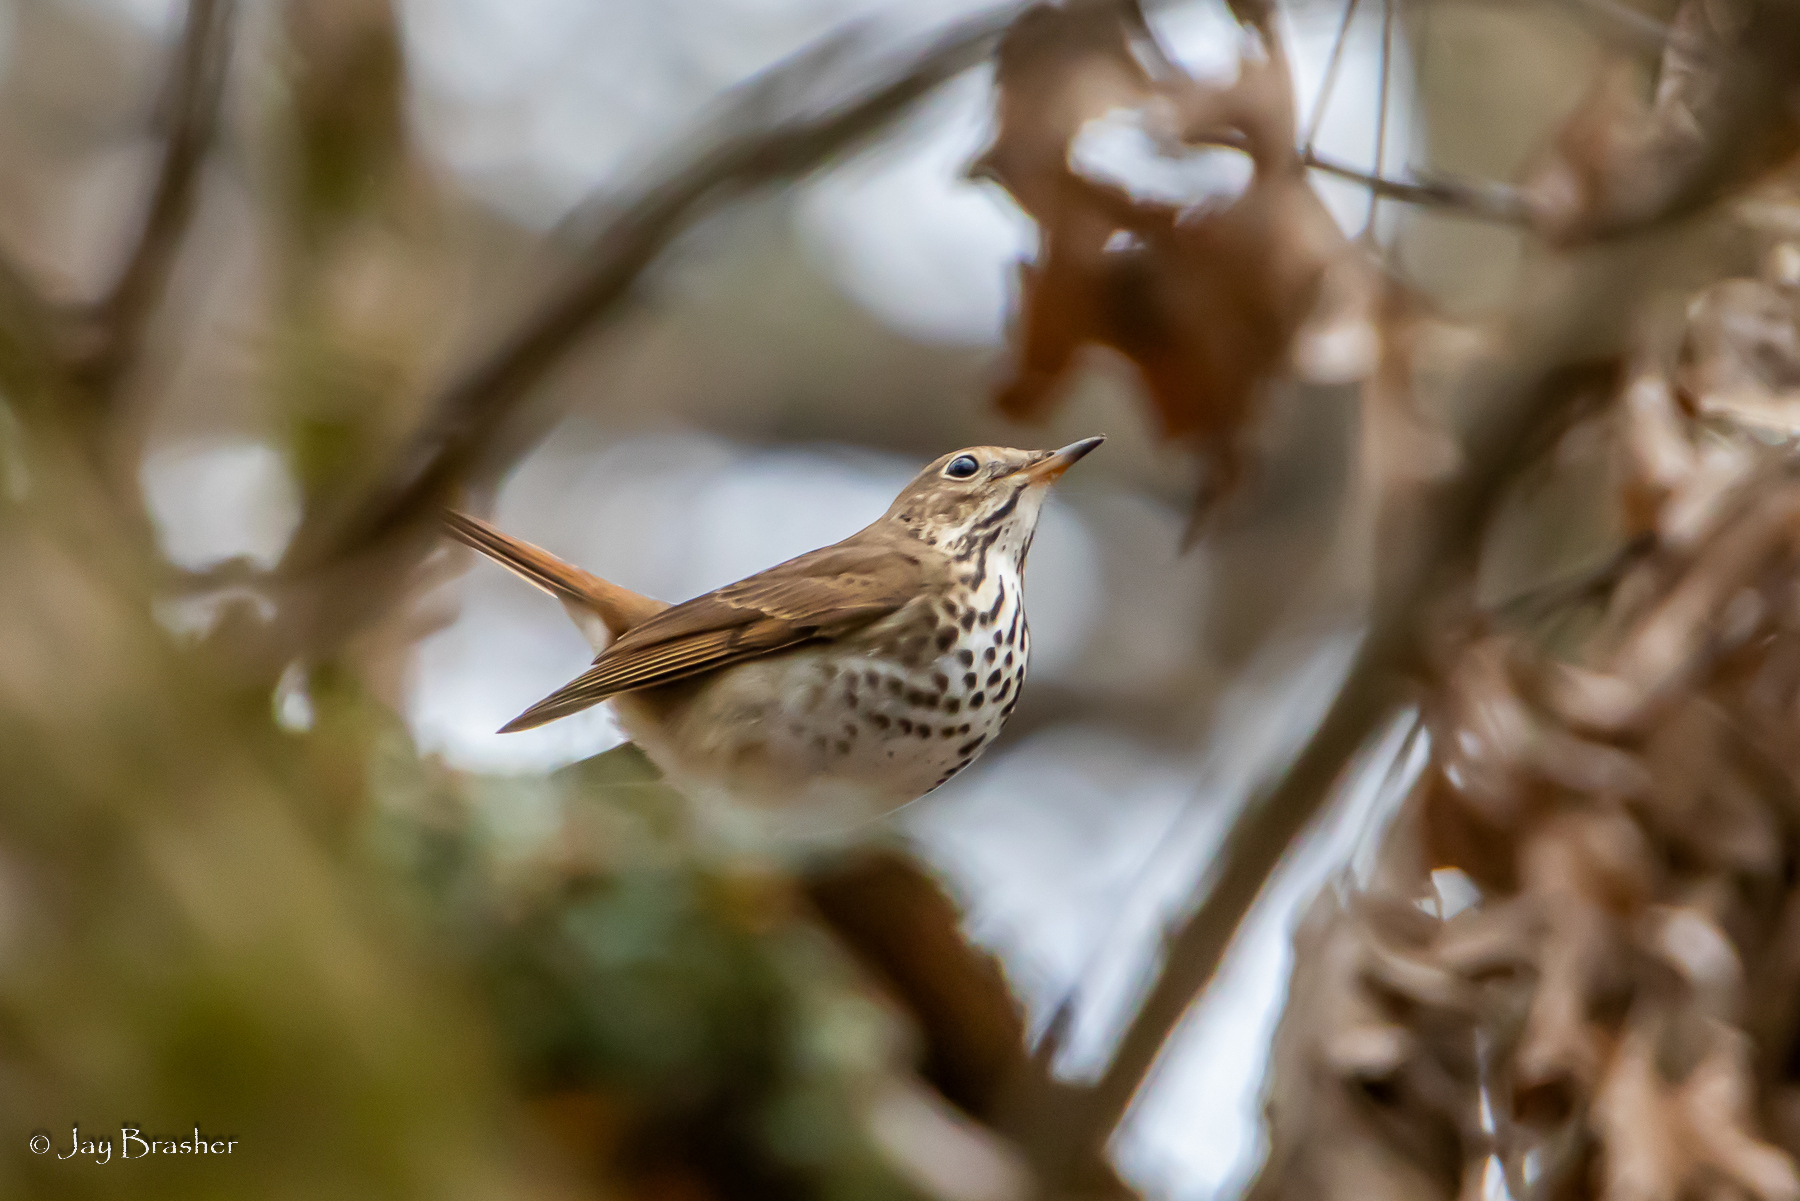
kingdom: Animalia
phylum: Chordata
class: Aves
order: Passeriformes
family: Turdidae
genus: Catharus
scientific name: Catharus guttatus
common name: Hermit thrush
